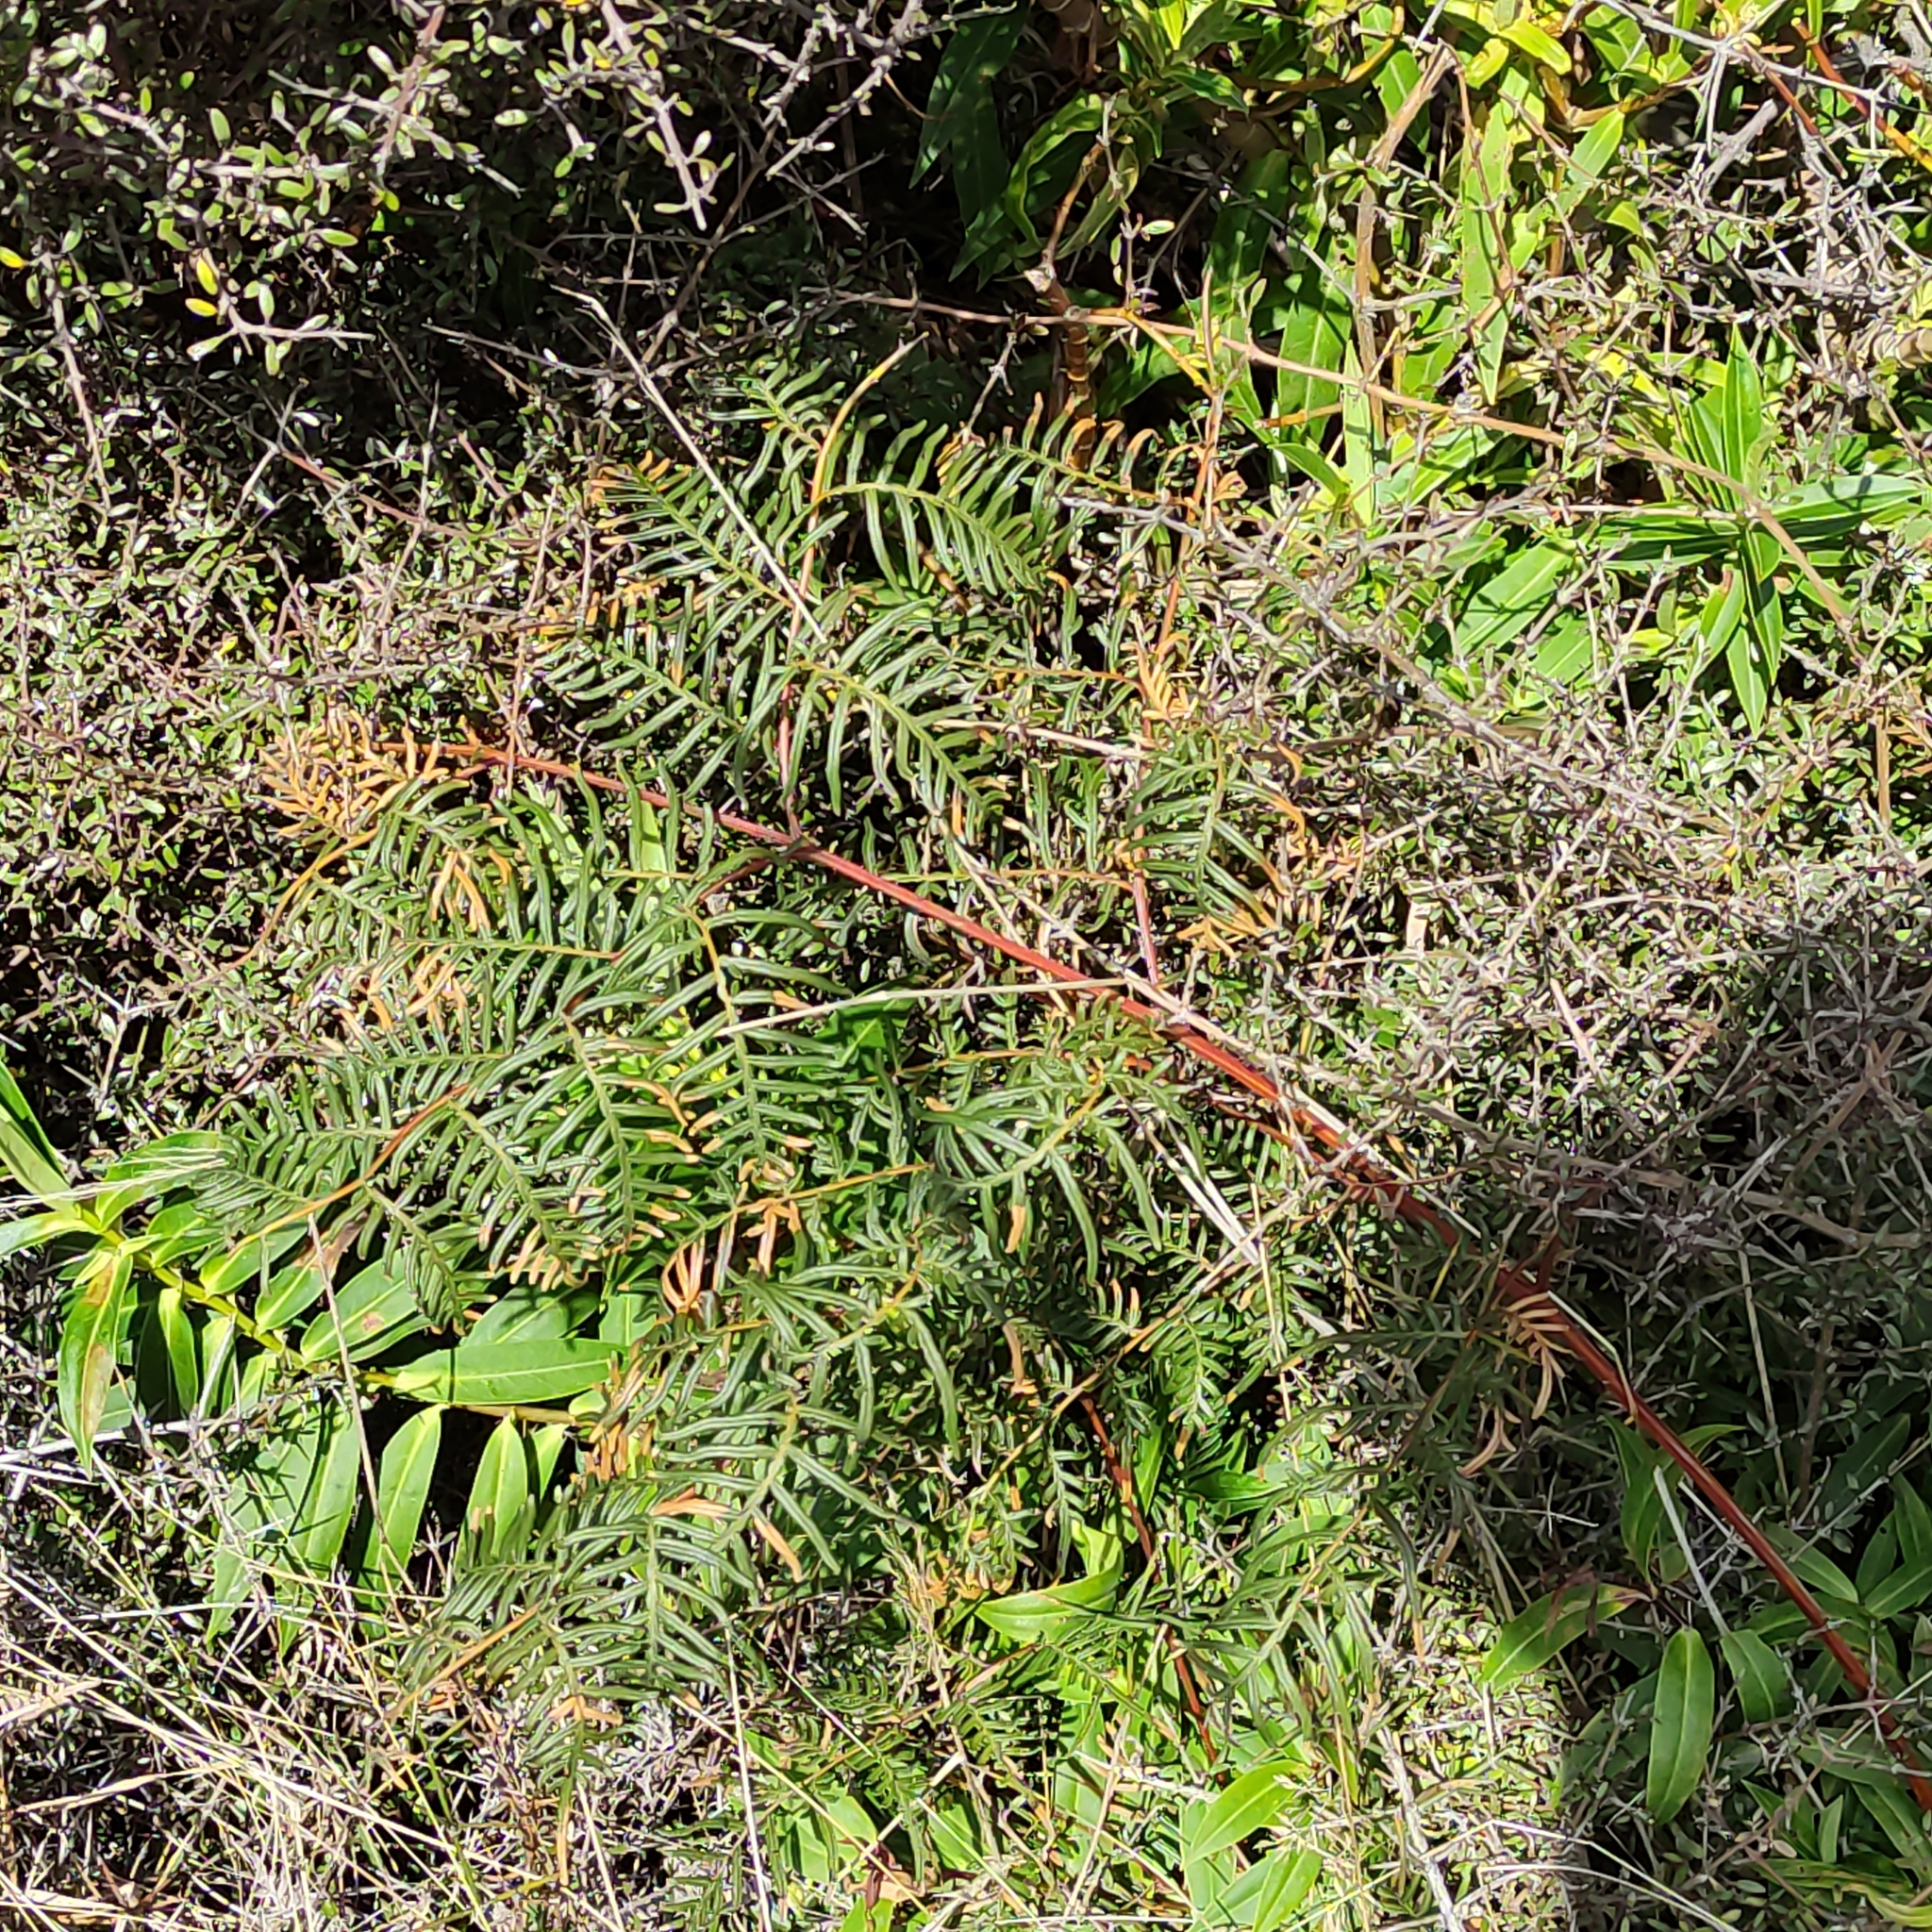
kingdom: Plantae
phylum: Tracheophyta
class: Polypodiopsida
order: Polypodiales
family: Dennstaedtiaceae
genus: Pteridium
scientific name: Pteridium esculentum
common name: Bracken fern
